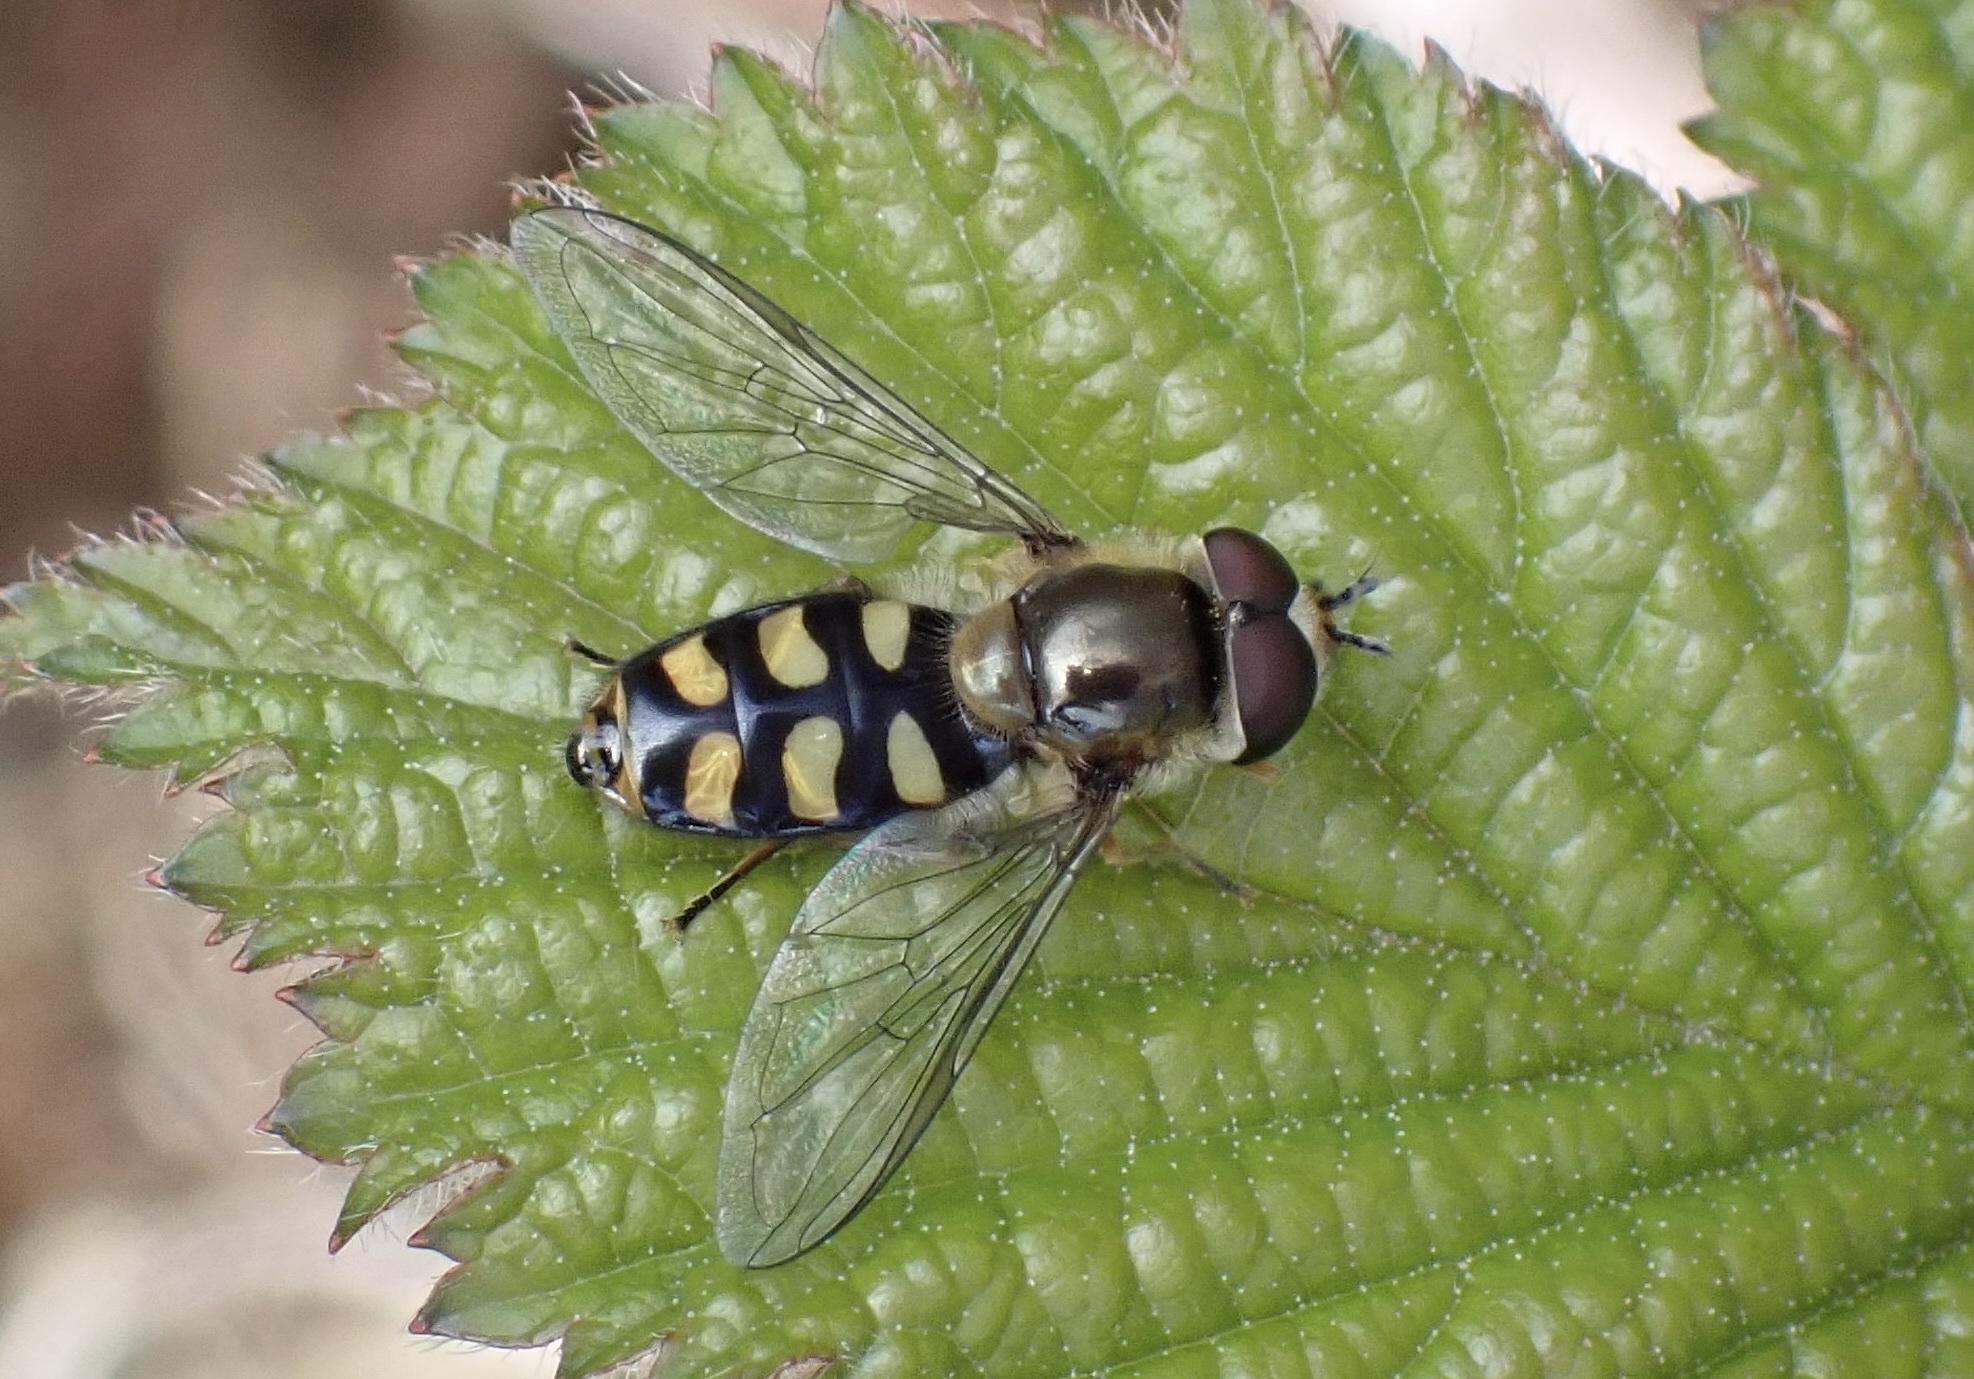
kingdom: Animalia
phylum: Arthropoda
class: Insecta
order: Diptera
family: Syrphidae
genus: Eupeodes
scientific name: Eupeodes luniger
